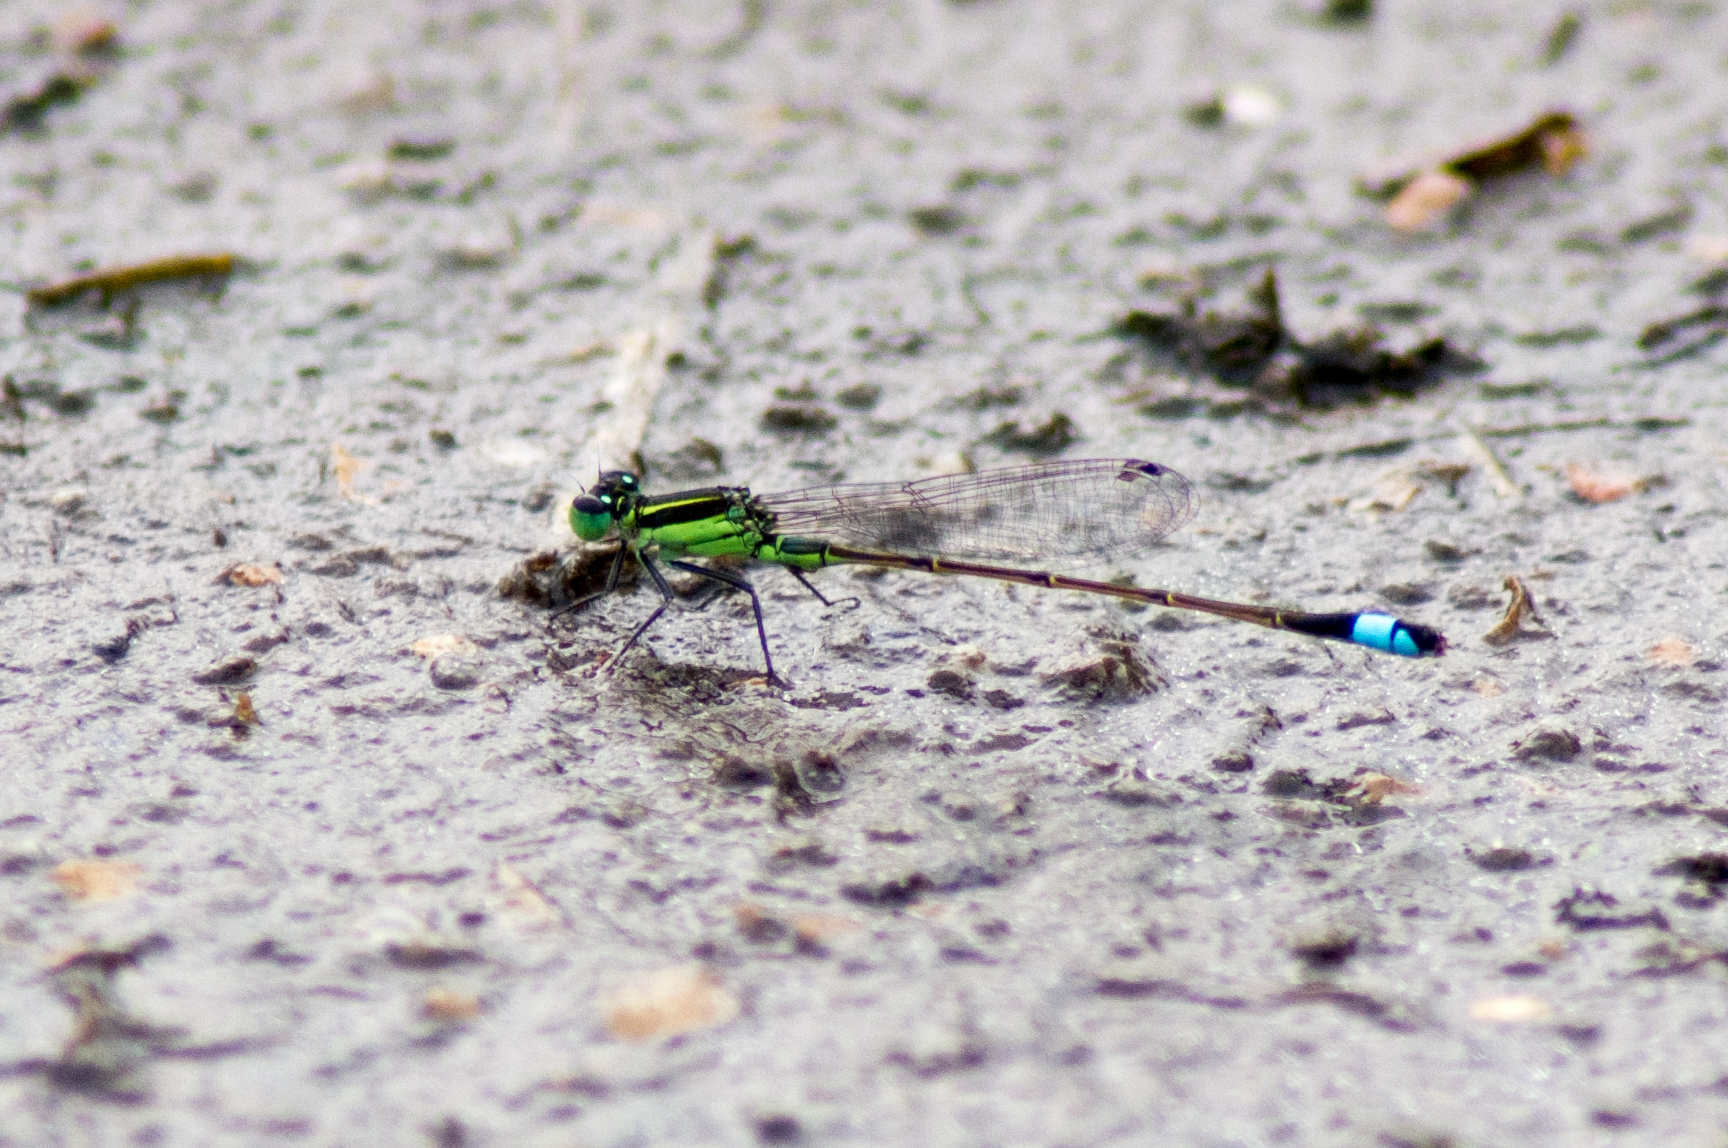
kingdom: Animalia
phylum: Arthropoda
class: Insecta
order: Odonata
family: Coenagrionidae
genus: Ischnura
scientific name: Ischnura ramburii
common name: Rambur's forktail
